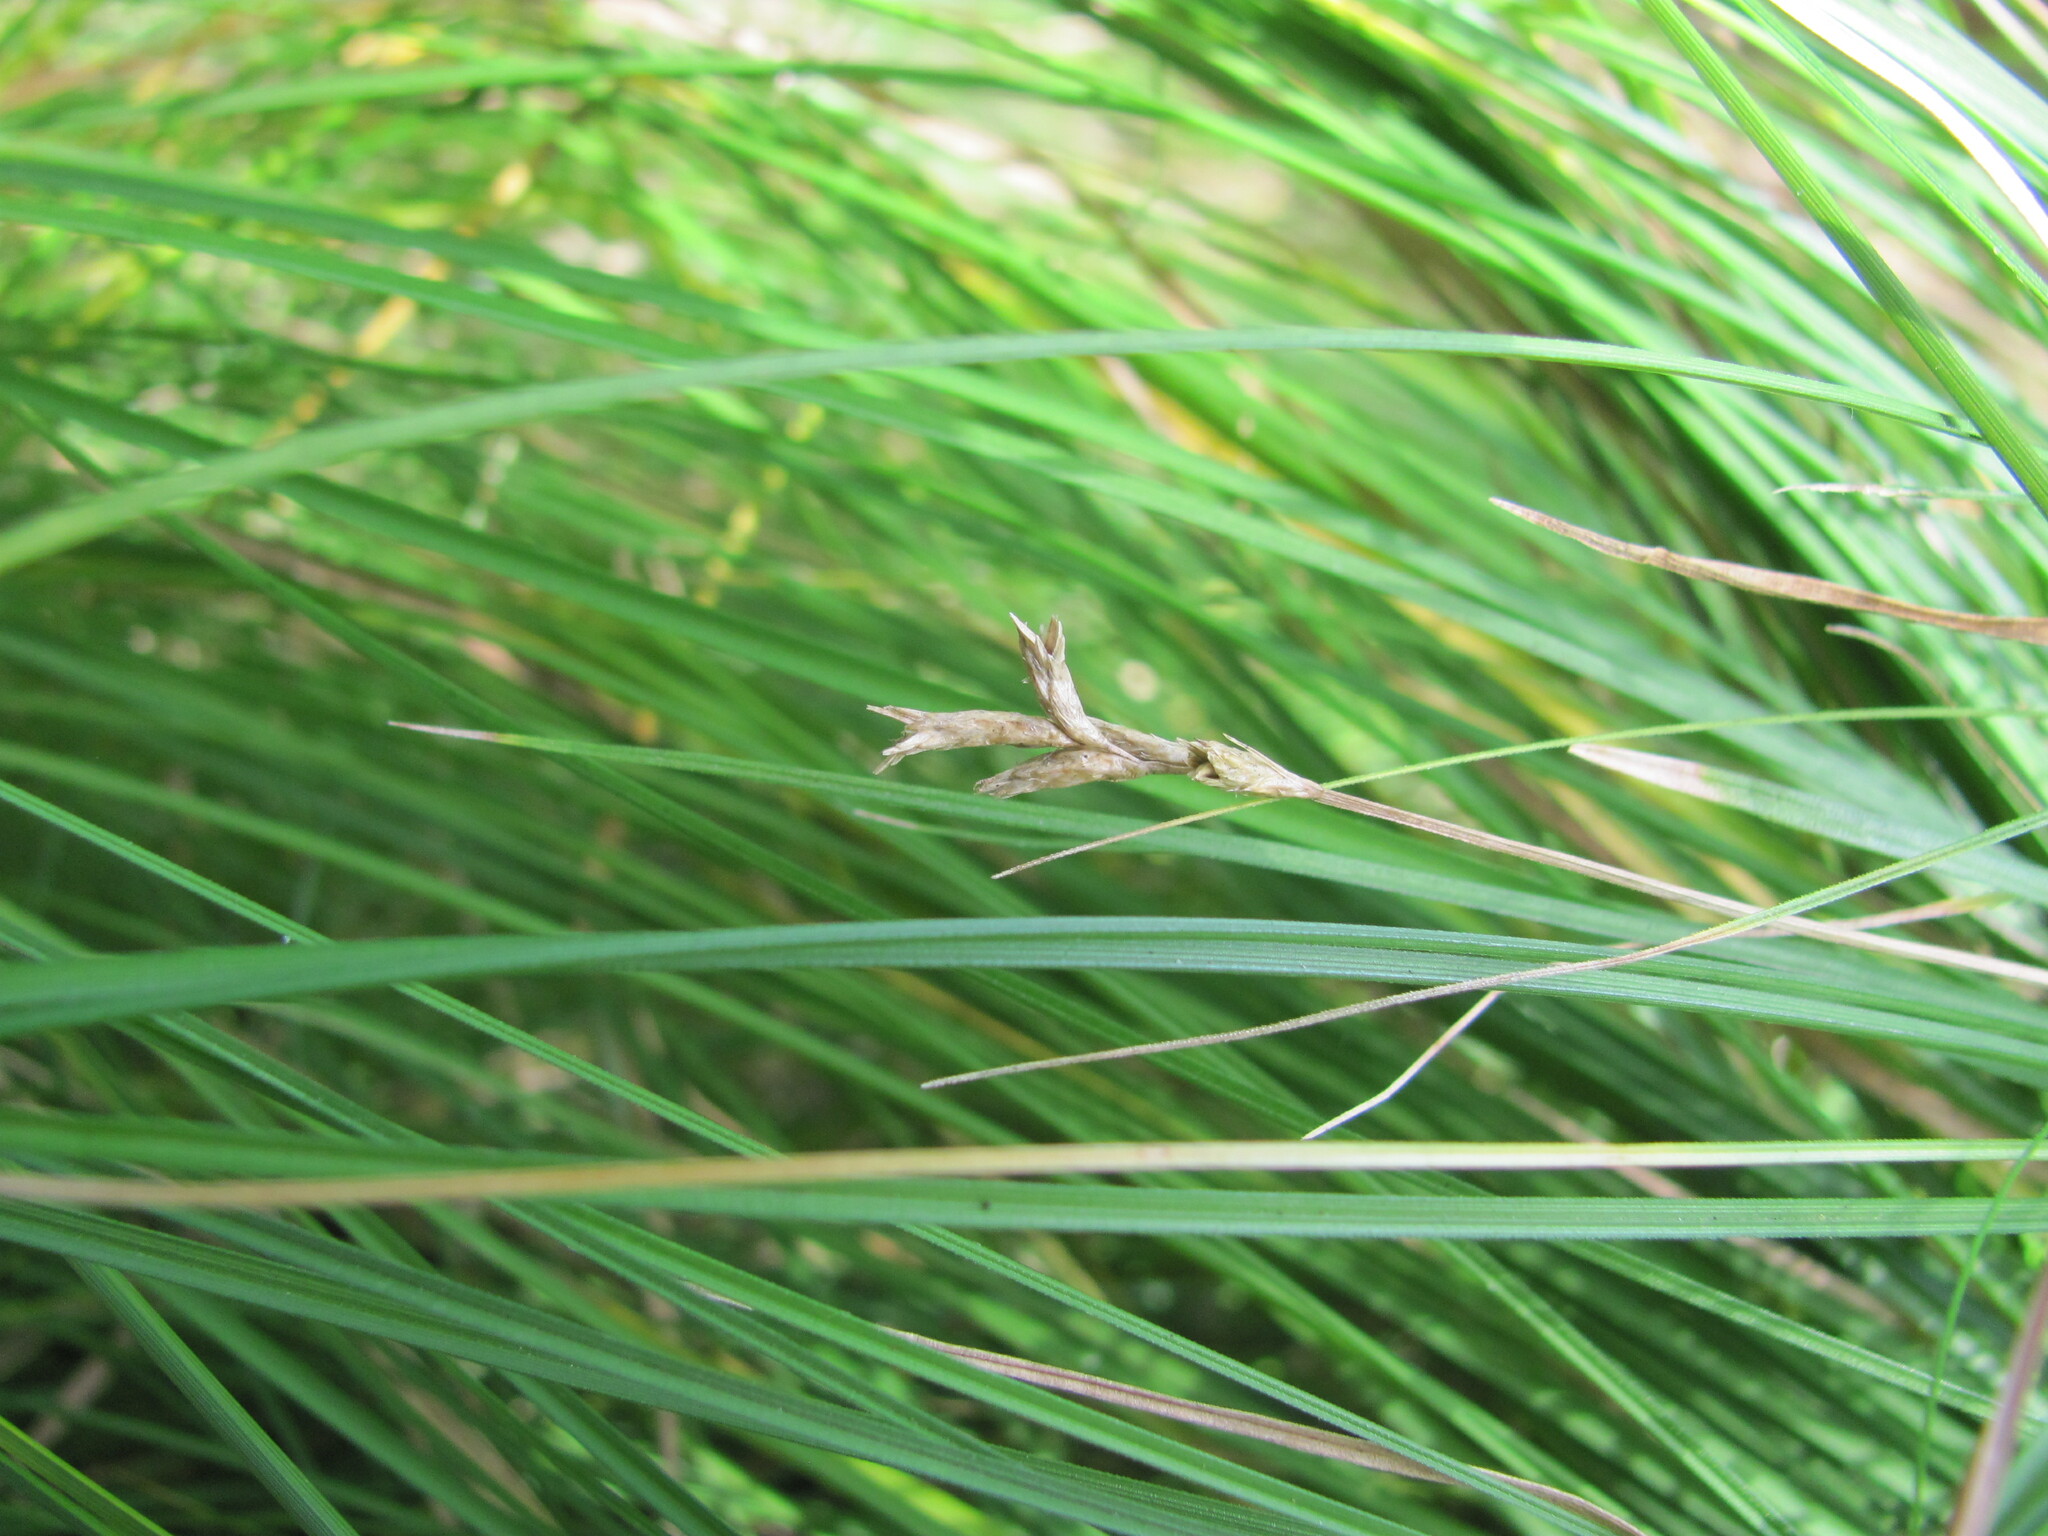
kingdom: Plantae
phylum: Tracheophyta
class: Liliopsida
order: Poales
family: Cyperaceae
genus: Carex
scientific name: Carex brizoides
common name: Quaking-grass sedge
